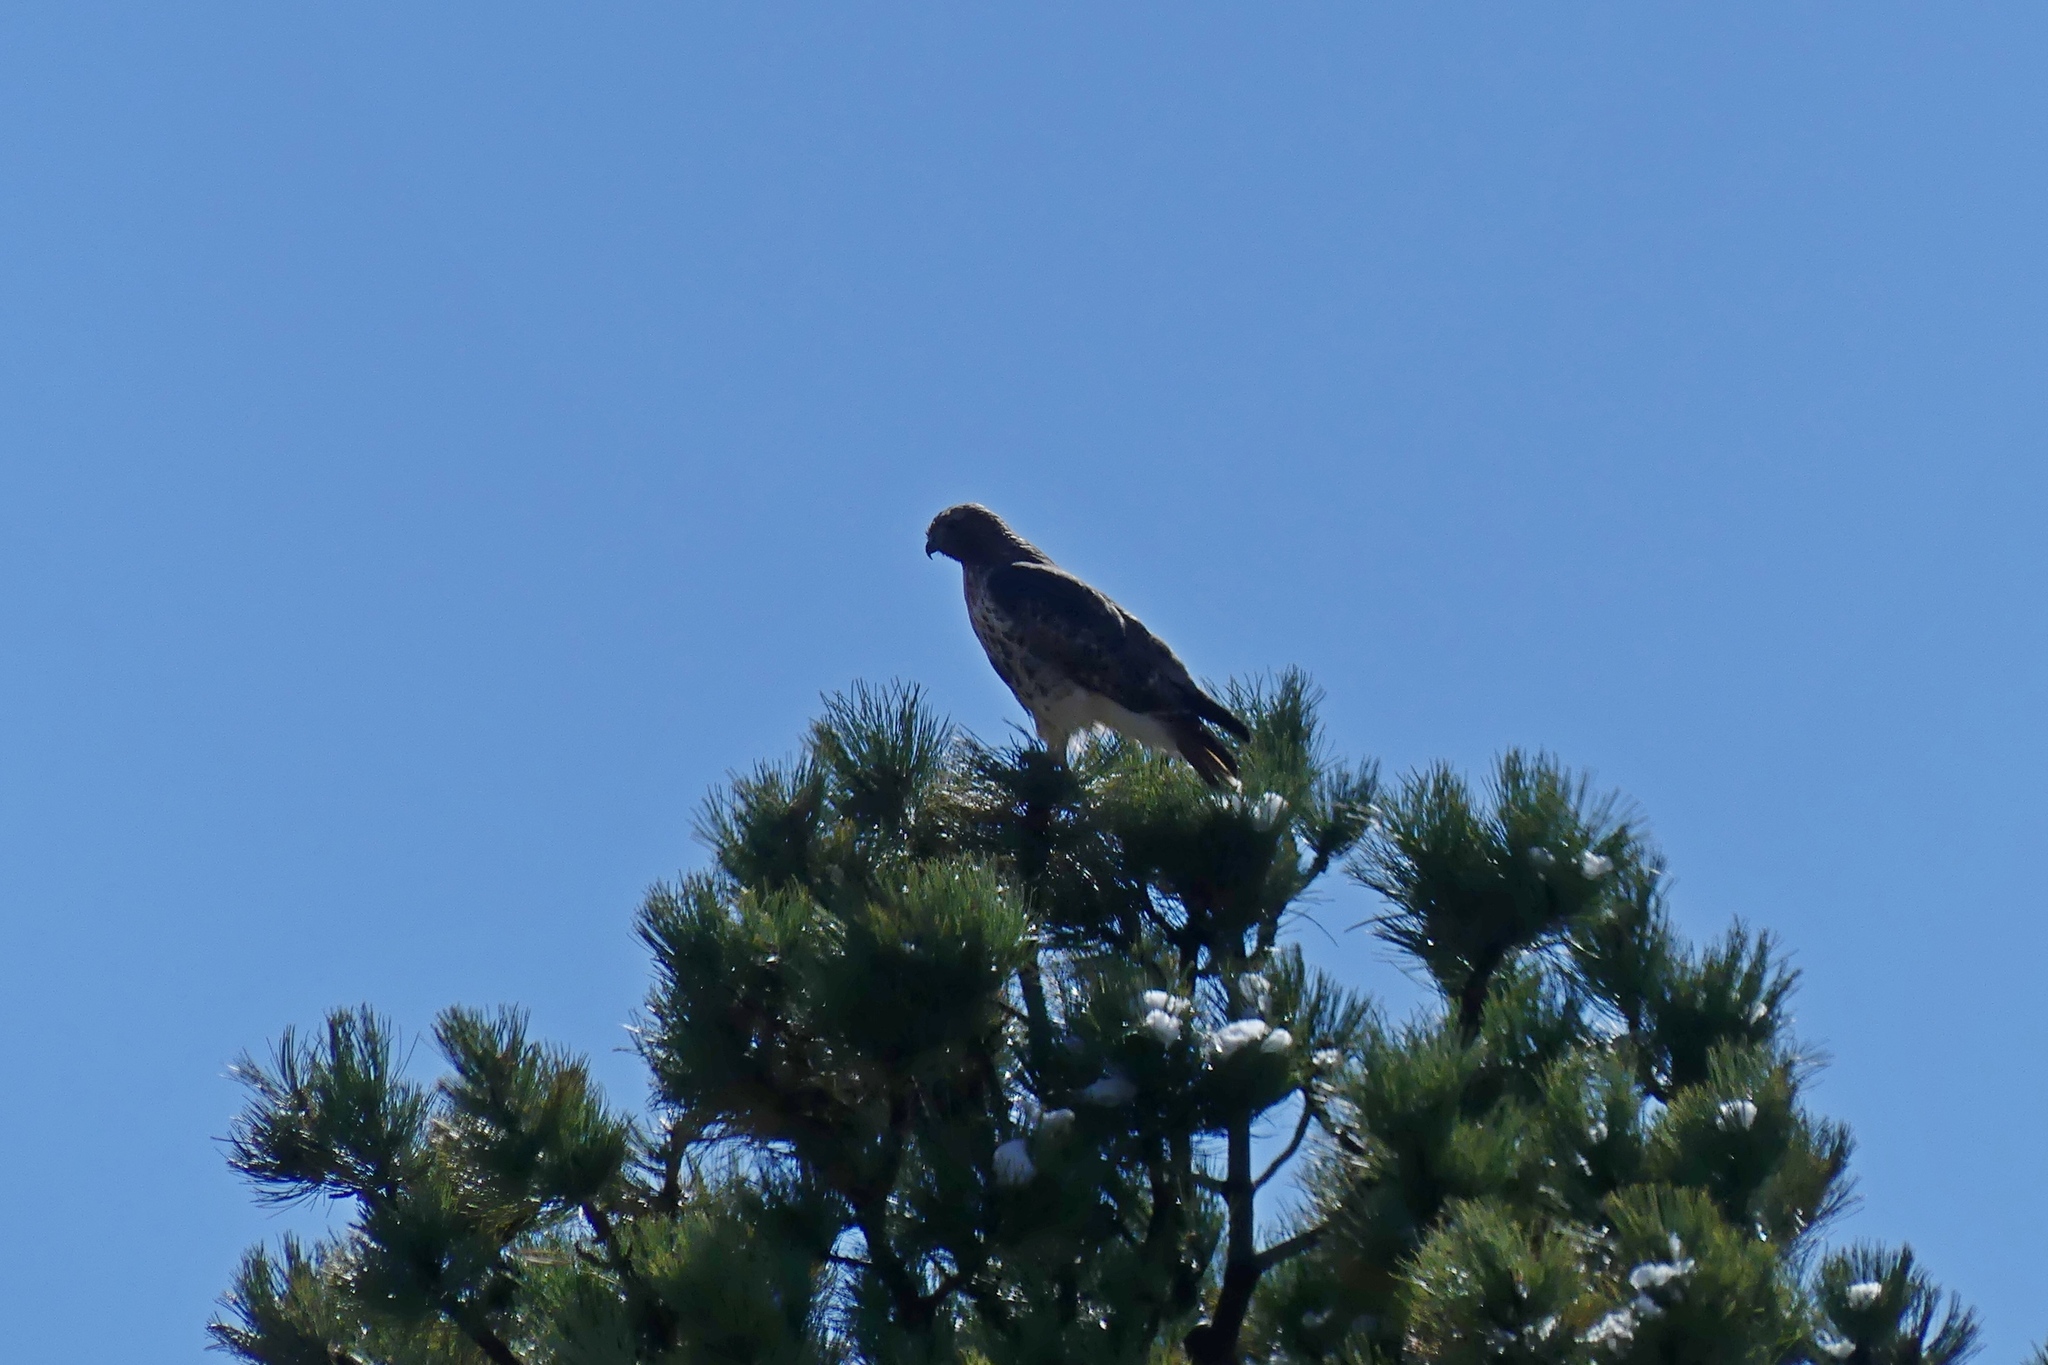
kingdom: Animalia
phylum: Chordata
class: Aves
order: Accipitriformes
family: Accipitridae
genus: Buteo
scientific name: Buteo jamaicensis
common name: Red-tailed hawk
